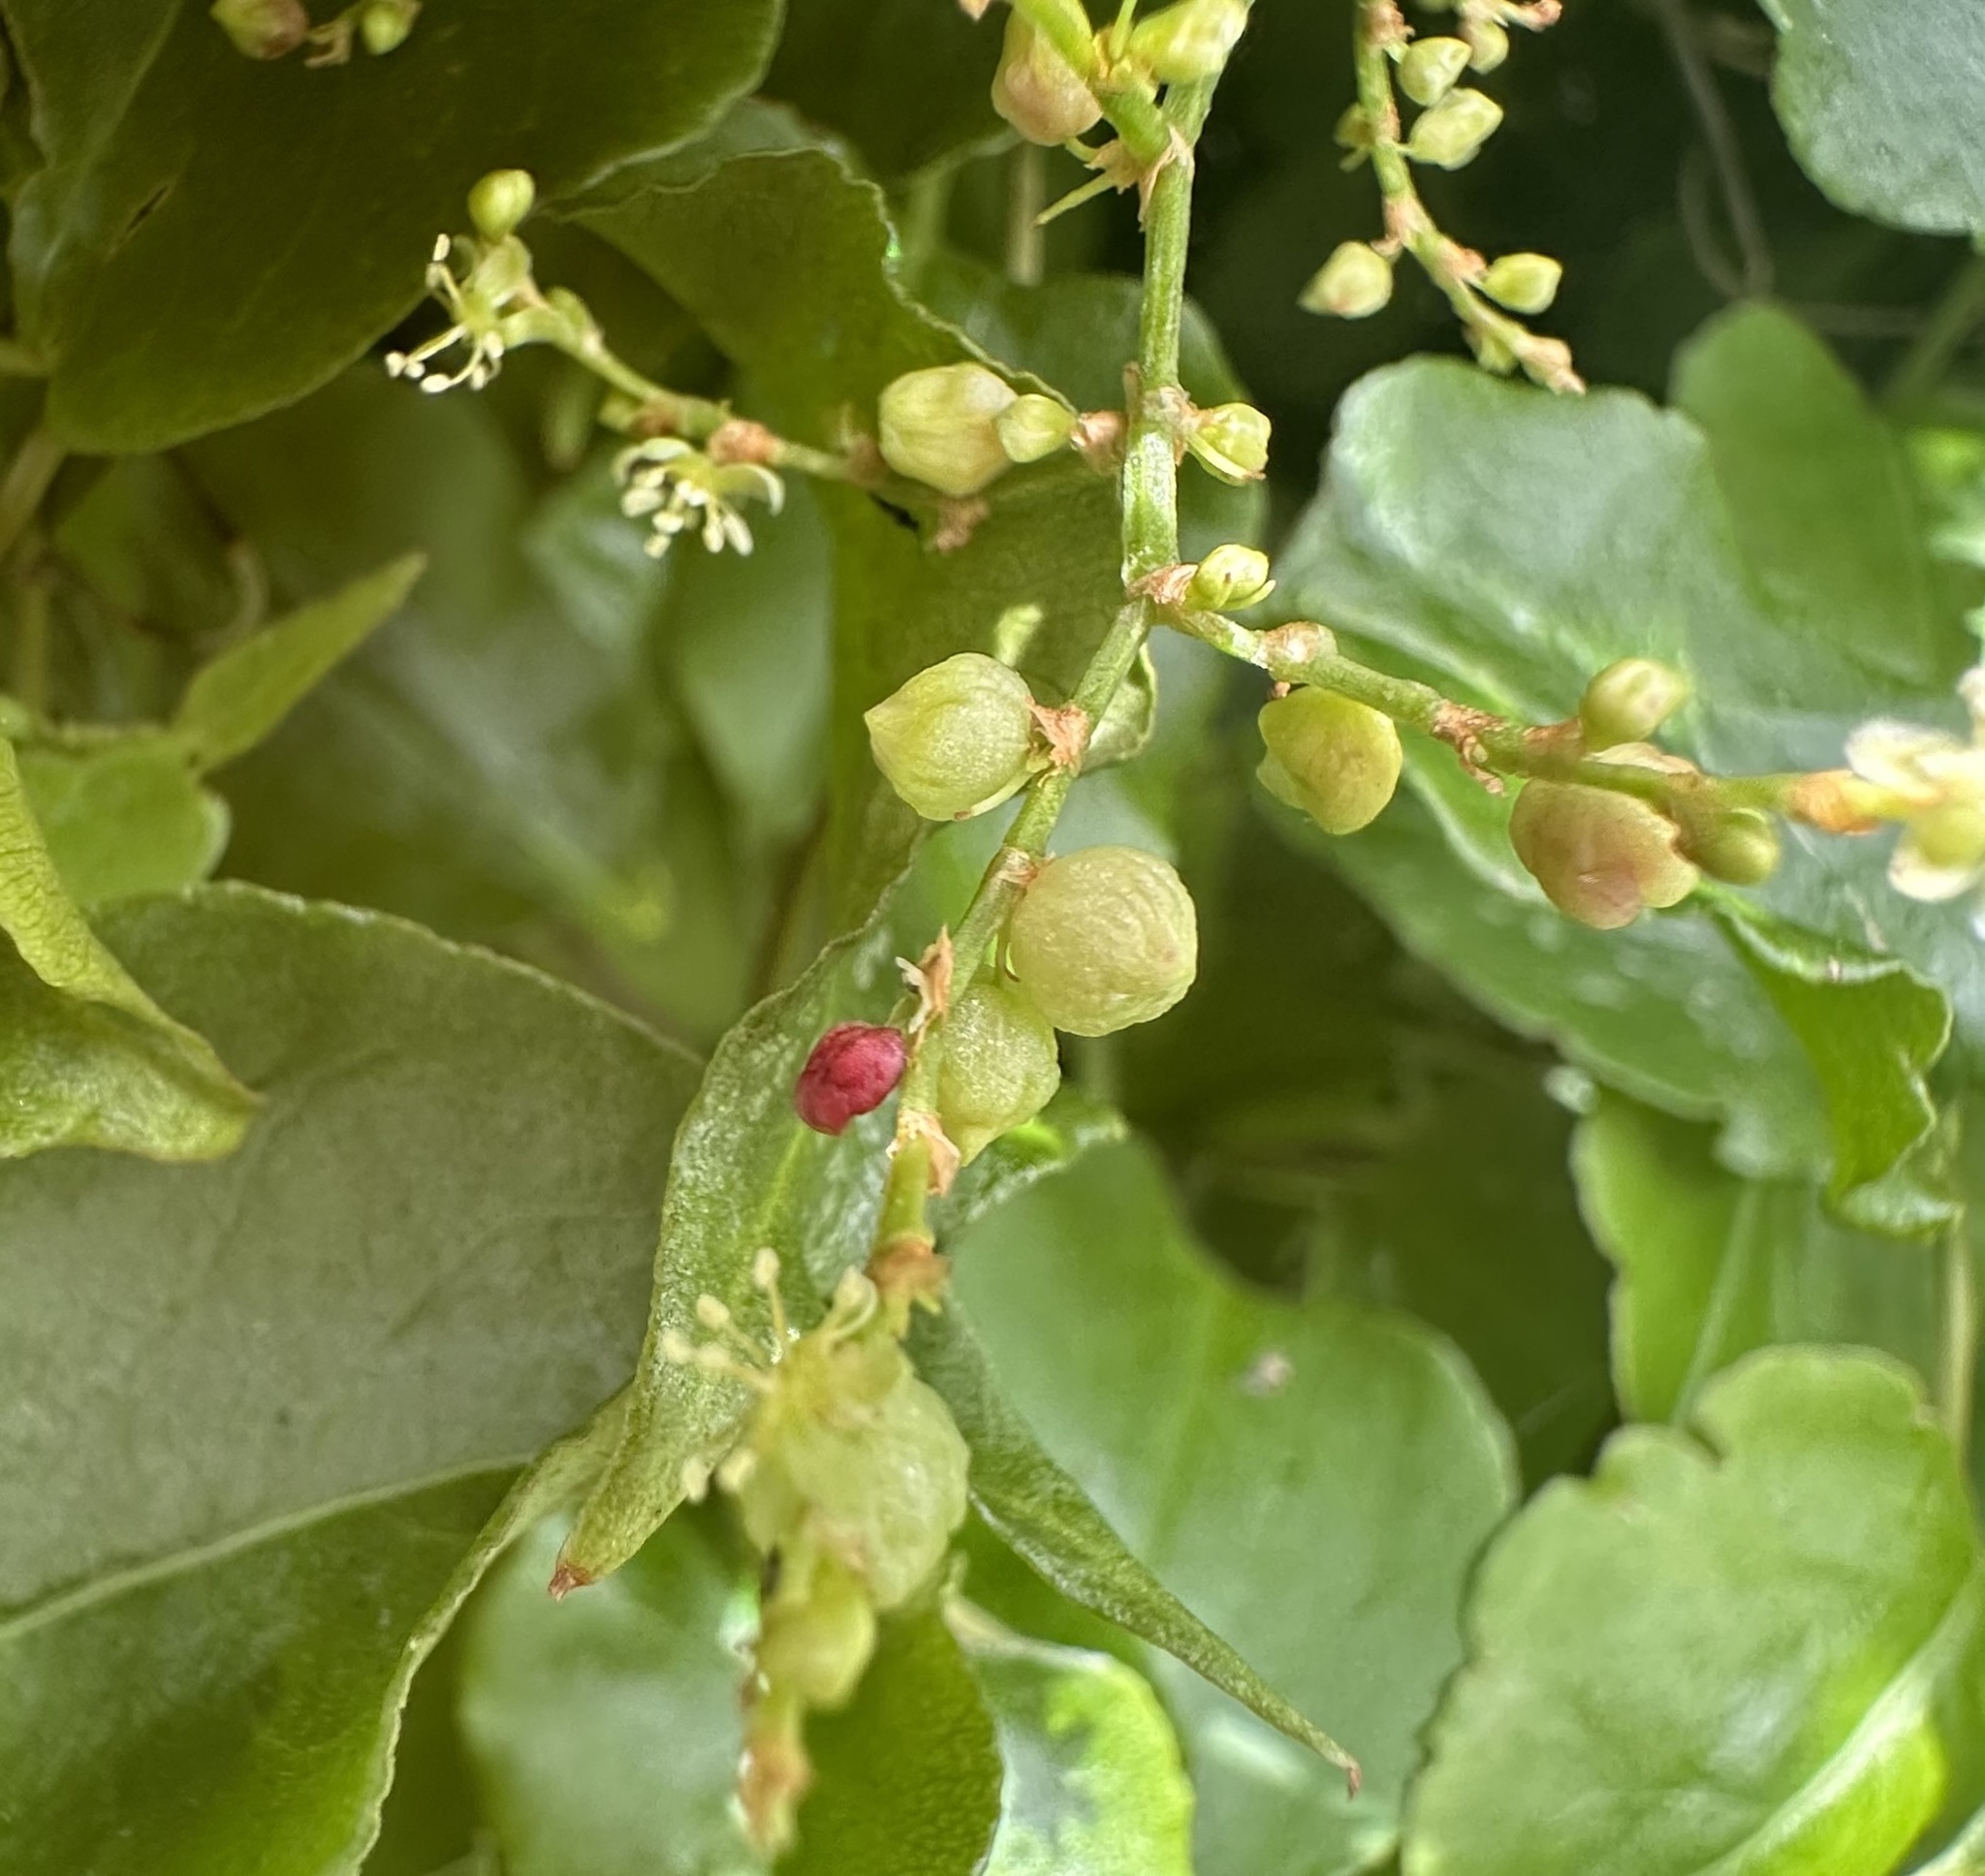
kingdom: Plantae
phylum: Tracheophyta
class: Magnoliopsida
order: Caryophyllales
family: Polygonaceae
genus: Muehlenbeckia
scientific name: Muehlenbeckia australis
